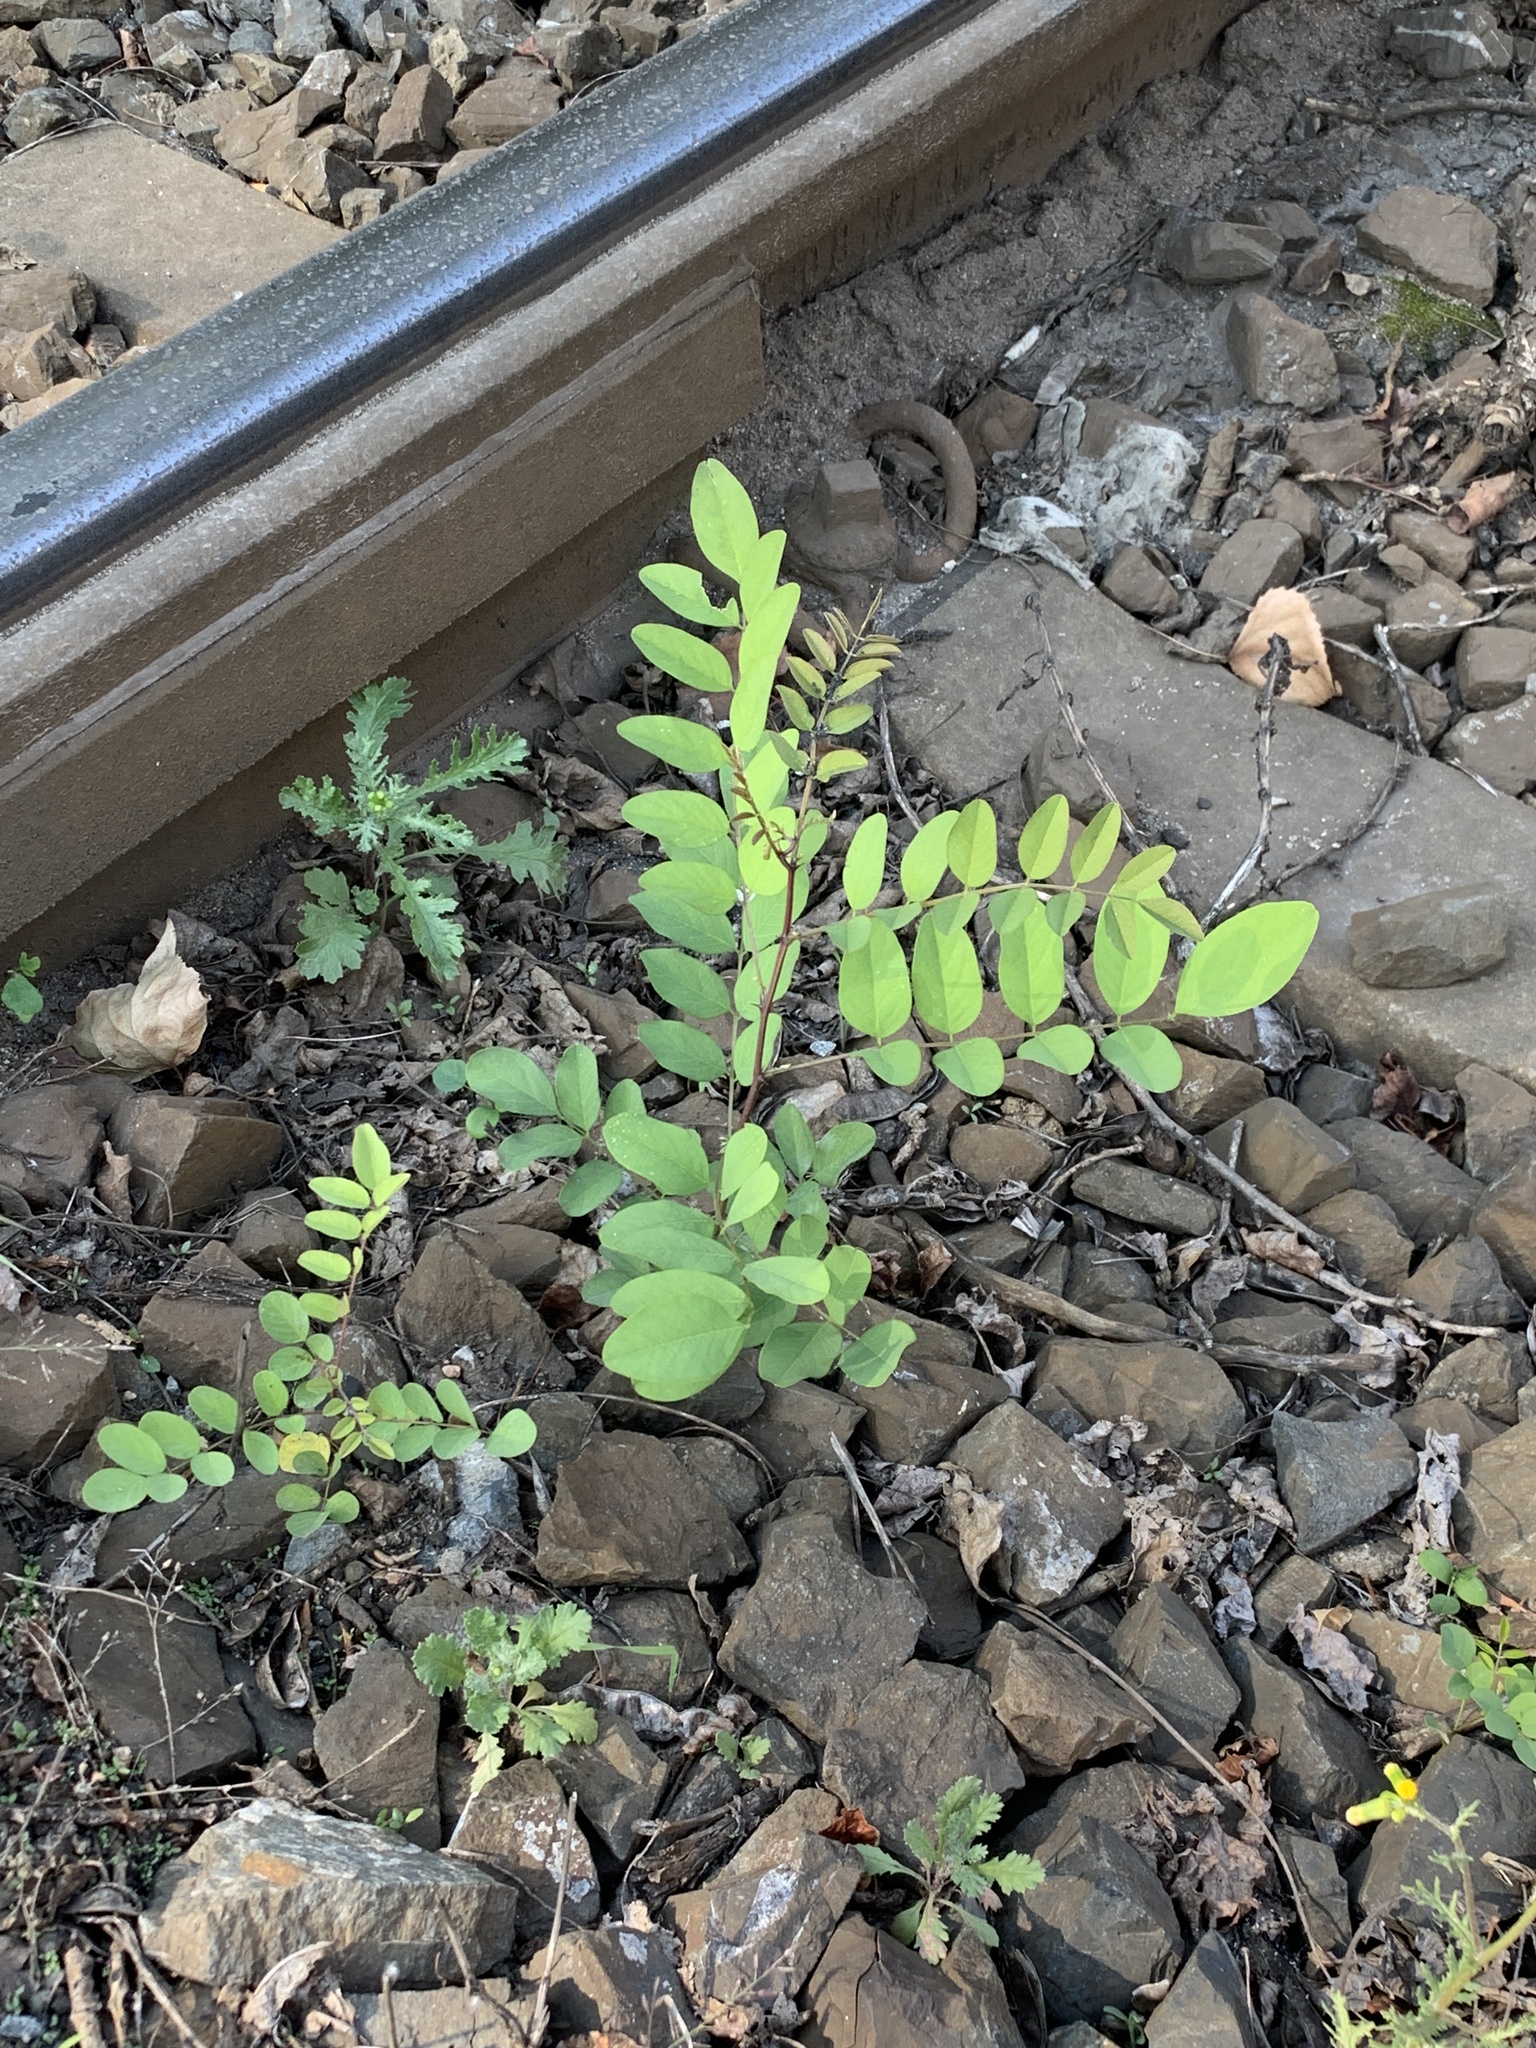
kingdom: Plantae
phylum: Tracheophyta
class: Magnoliopsida
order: Fabales
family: Fabaceae
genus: Robinia
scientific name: Robinia pseudoacacia
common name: Black locust
